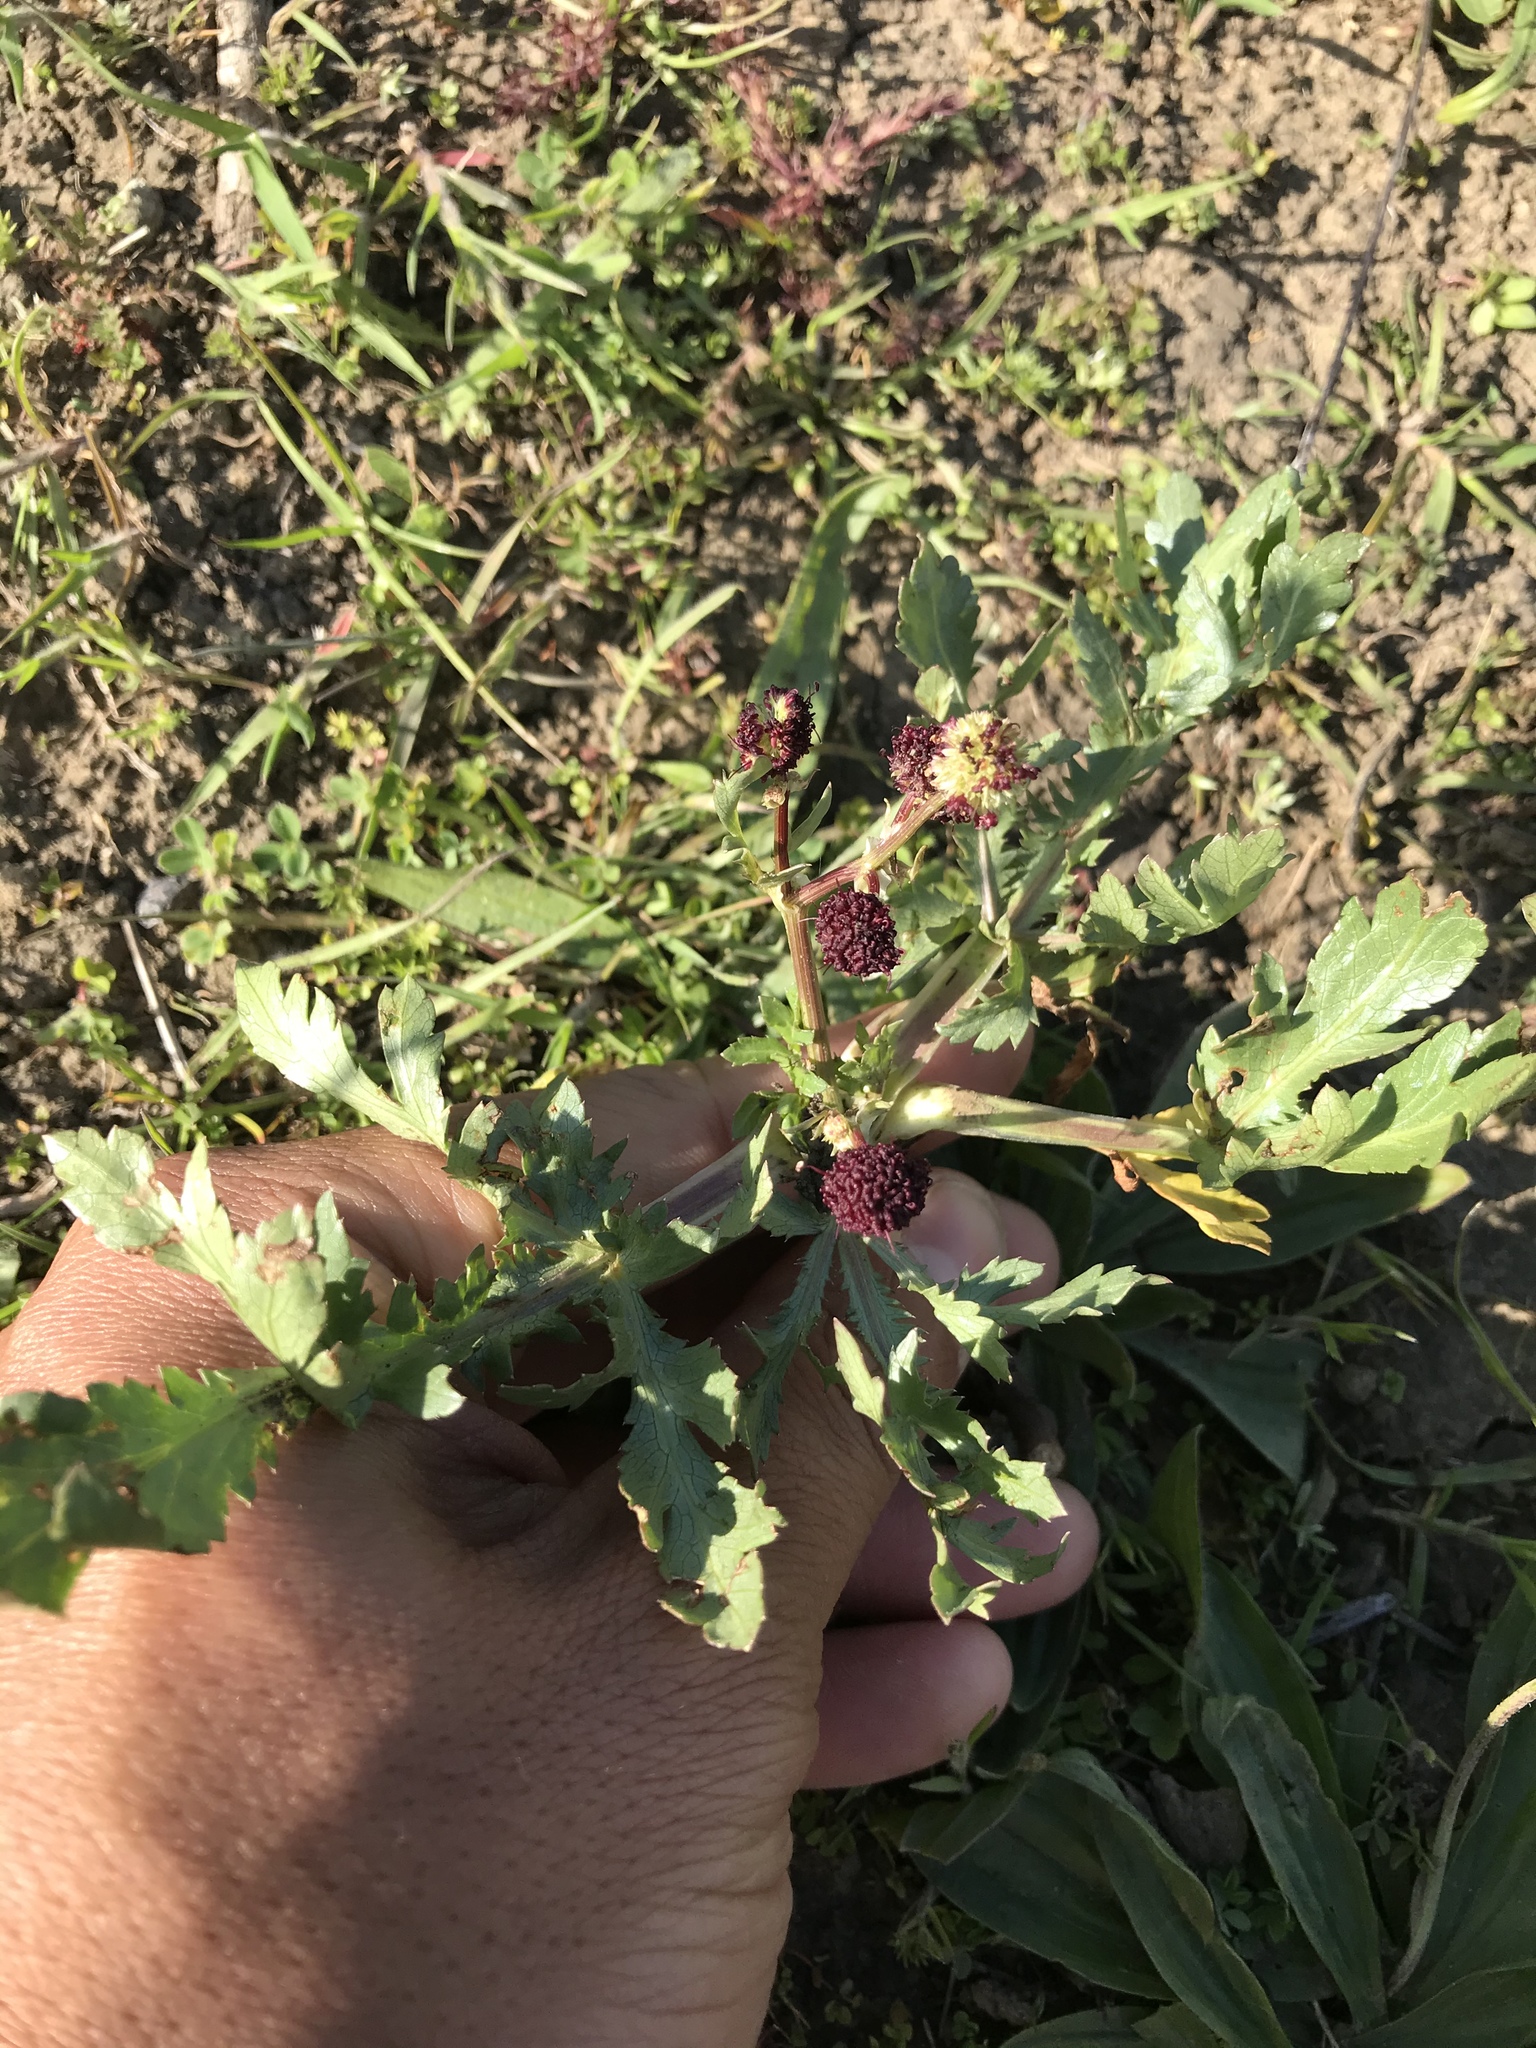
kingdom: Plantae
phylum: Tracheophyta
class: Magnoliopsida
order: Apiales
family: Apiaceae
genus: Sanicula
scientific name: Sanicula bipinnatifida
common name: Shoe-buttons
